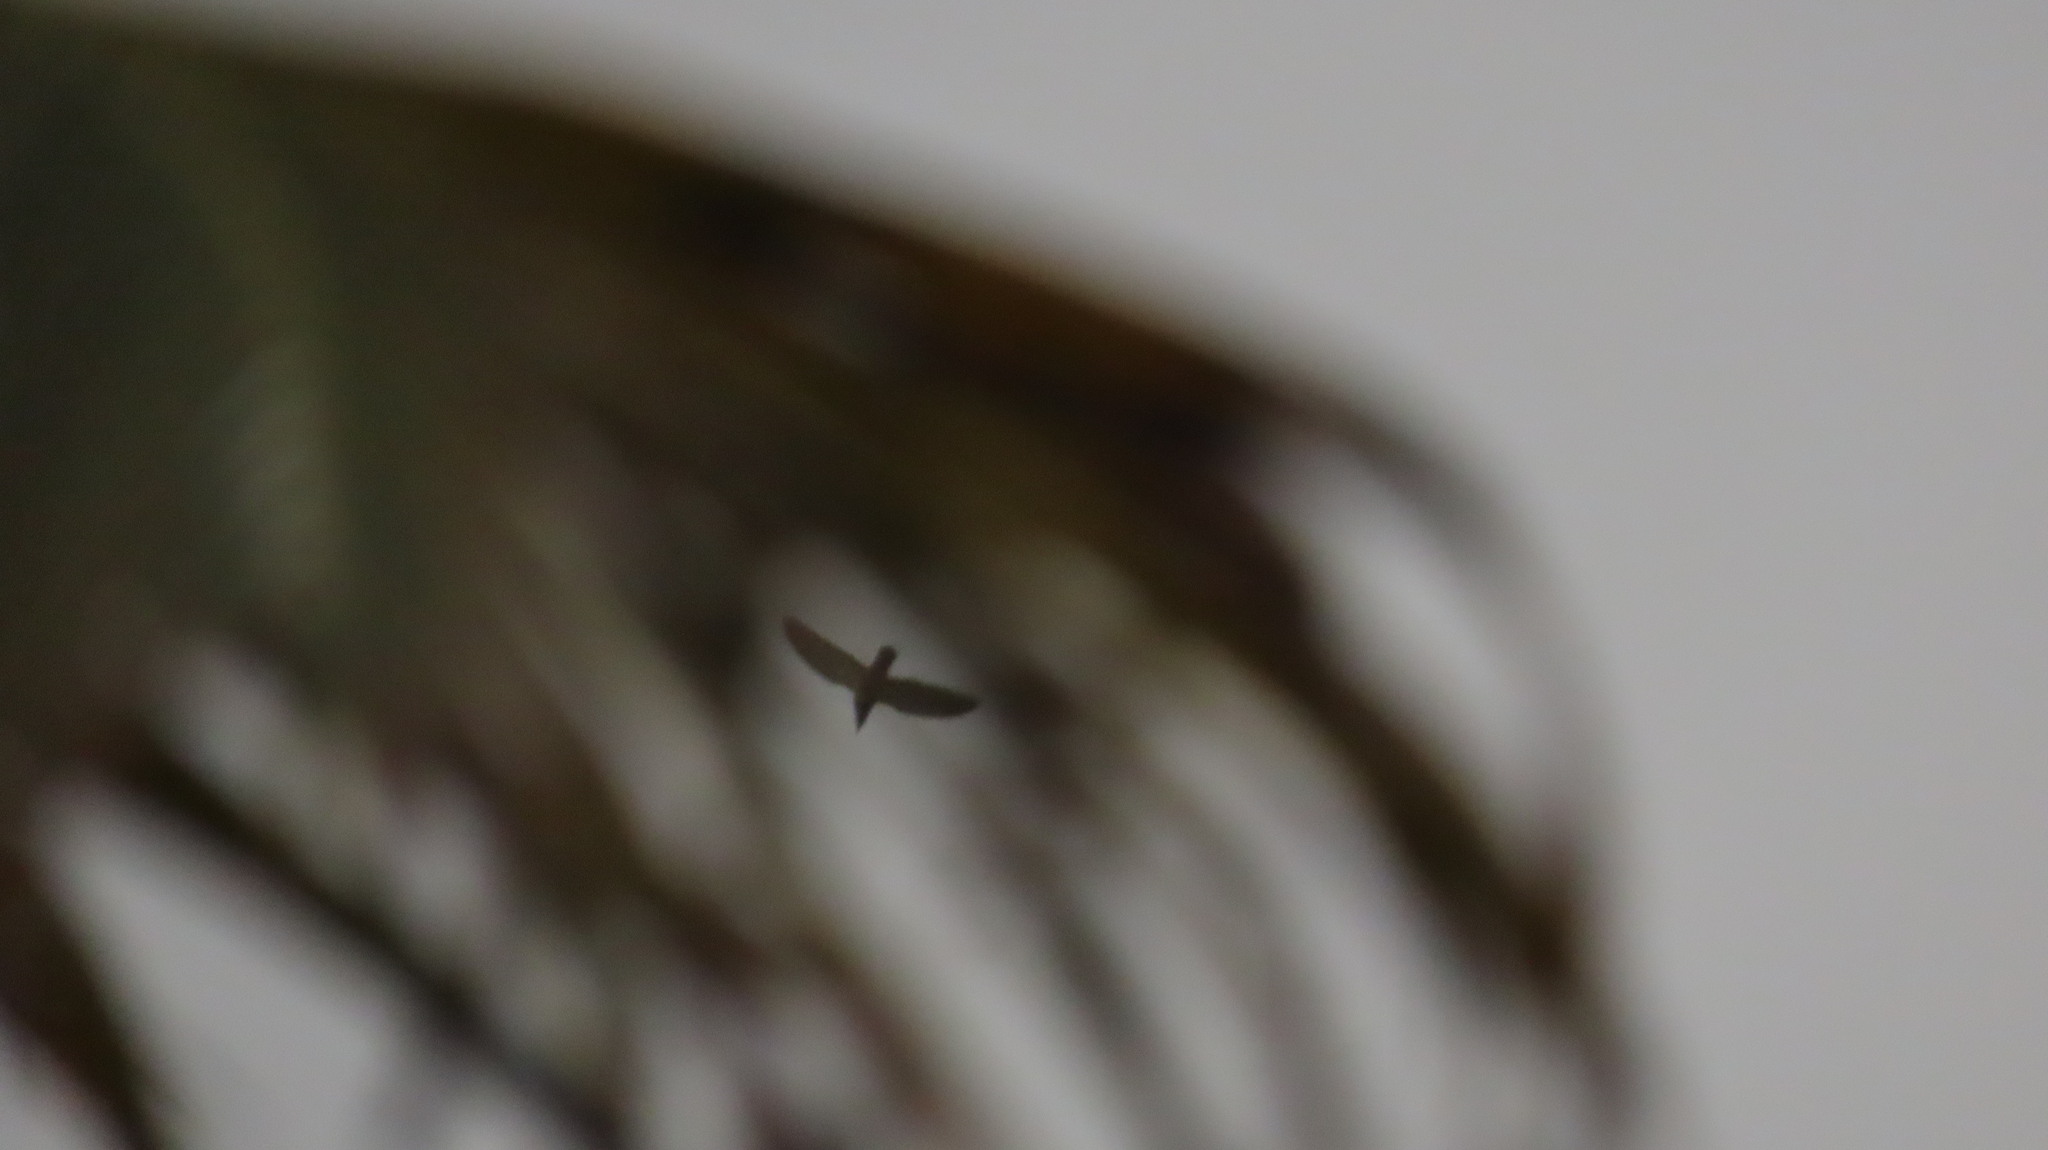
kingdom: Animalia
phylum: Chordata
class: Aves
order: Columbiformes
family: Columbidae
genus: Columba
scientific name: Columba livia
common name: Rock pigeon
